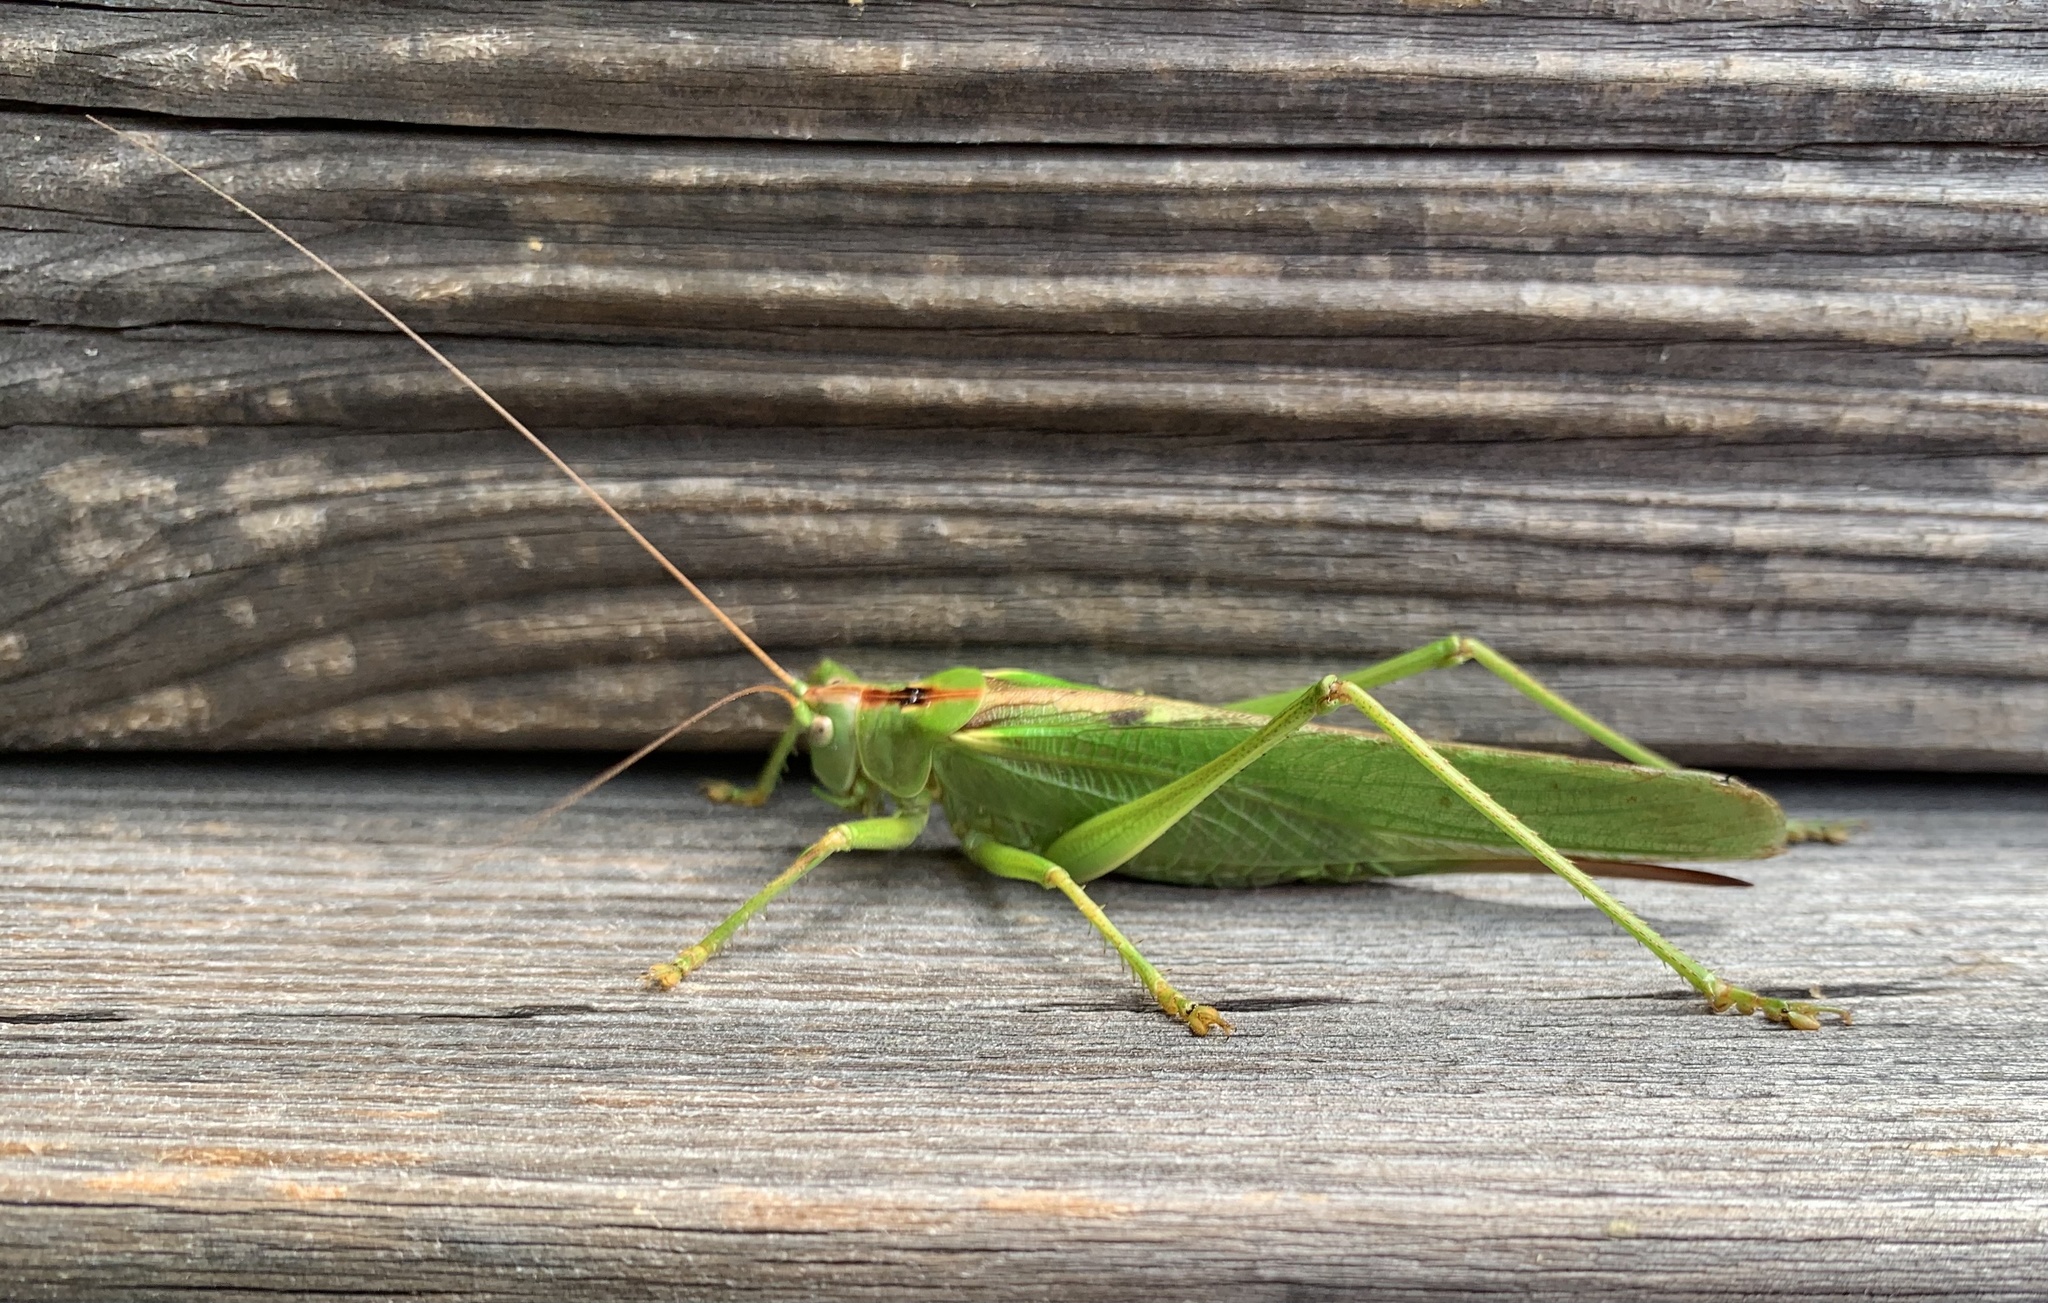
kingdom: Animalia
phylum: Arthropoda
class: Insecta
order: Orthoptera
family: Tettigoniidae
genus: Tettigonia
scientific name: Tettigonia viridissima
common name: Great green bush-cricket
